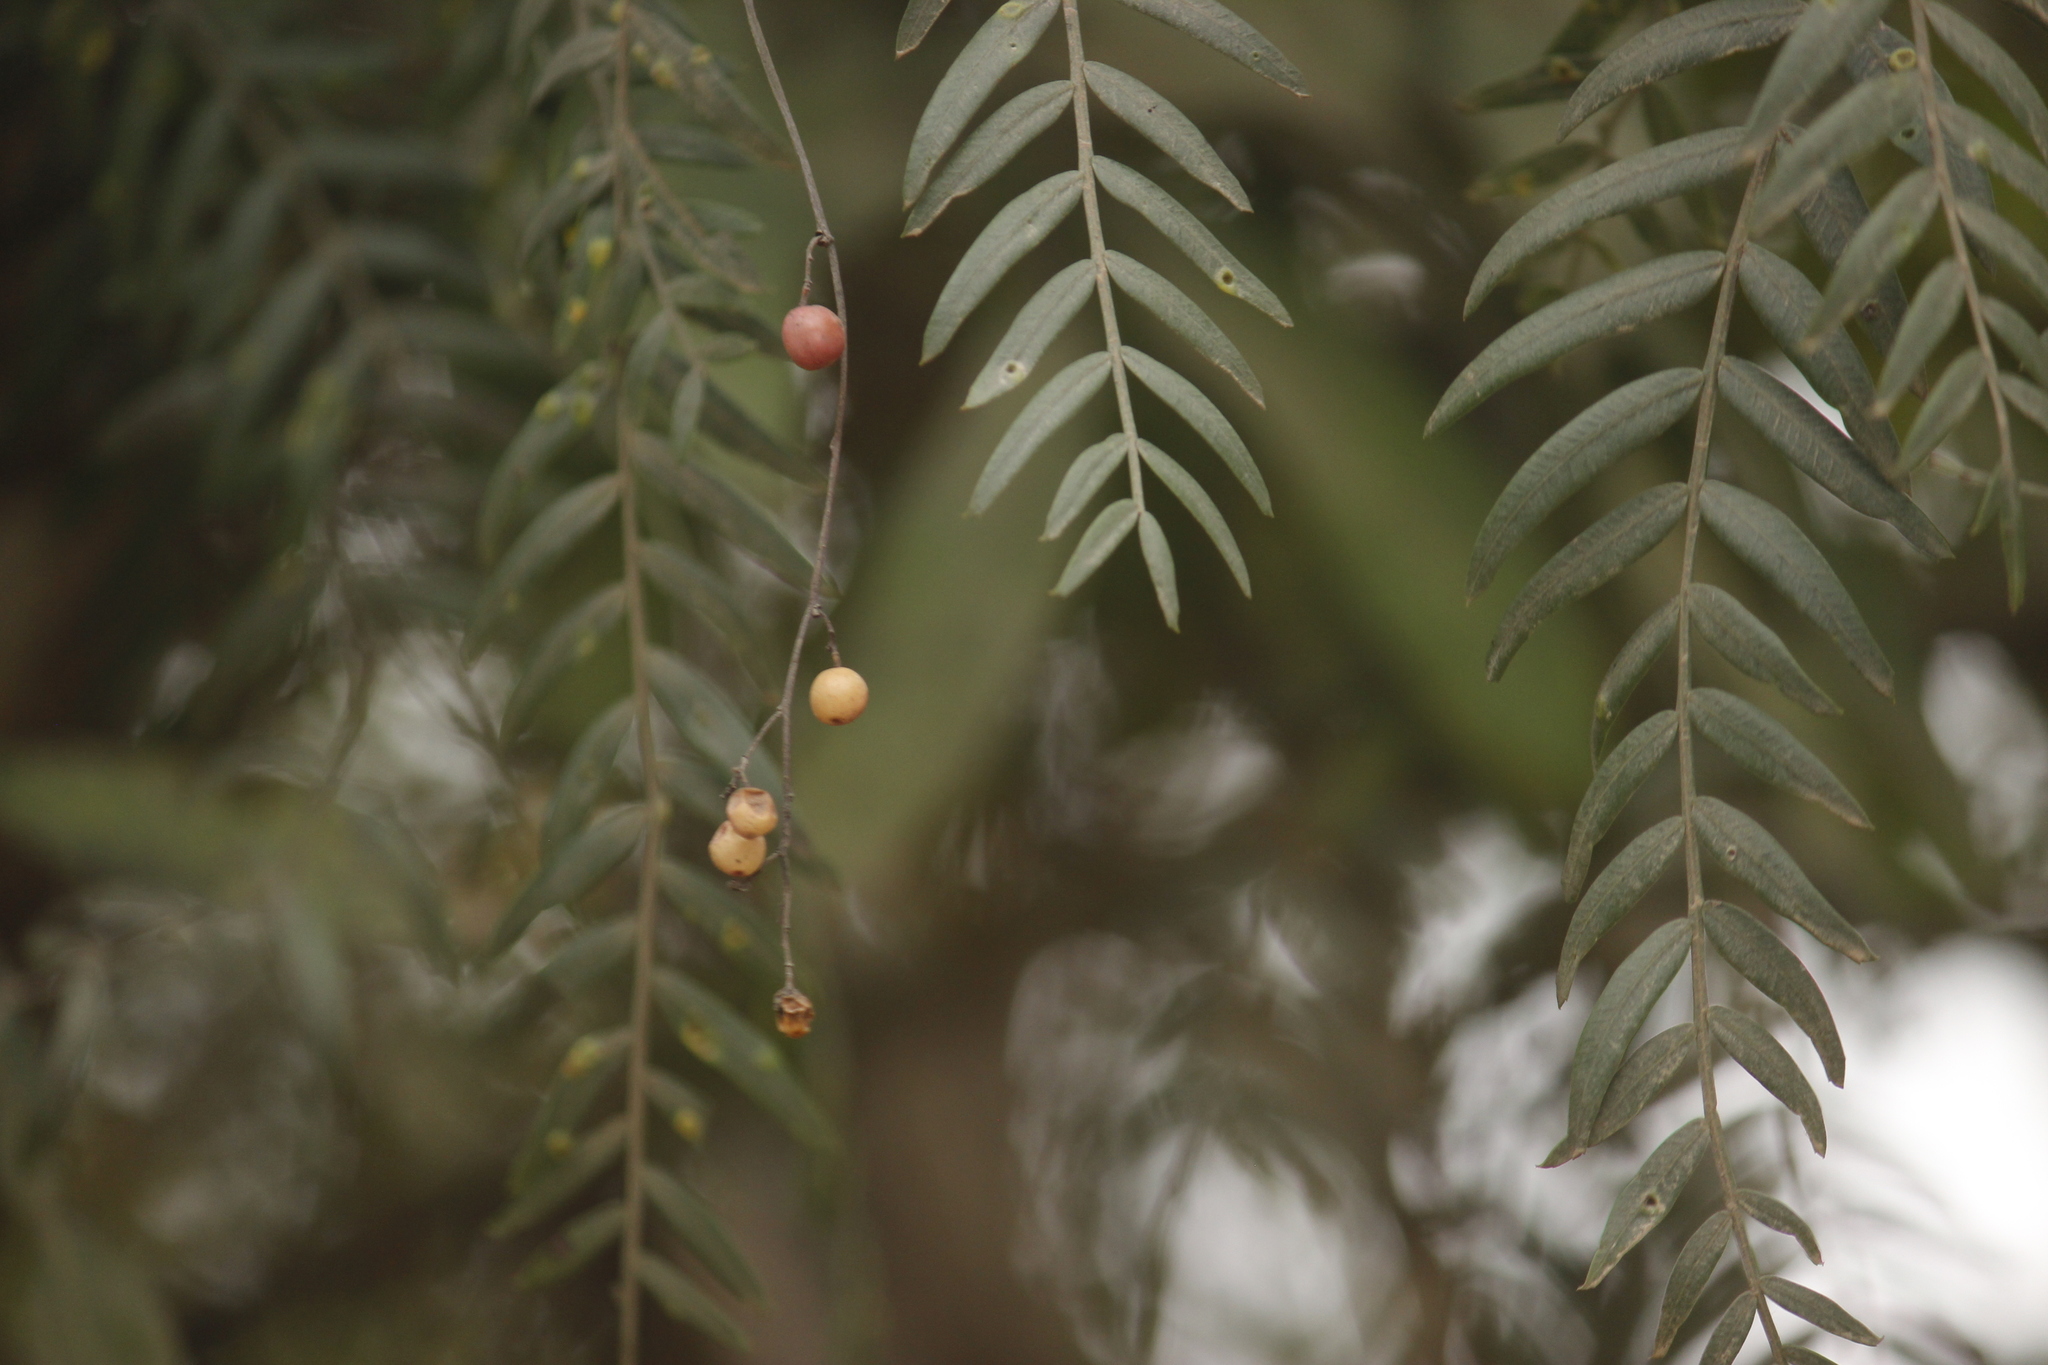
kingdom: Plantae
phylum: Tracheophyta
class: Magnoliopsida
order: Sapindales
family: Anacardiaceae
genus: Schinus
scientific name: Schinus molle
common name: Peruvian peppertree
